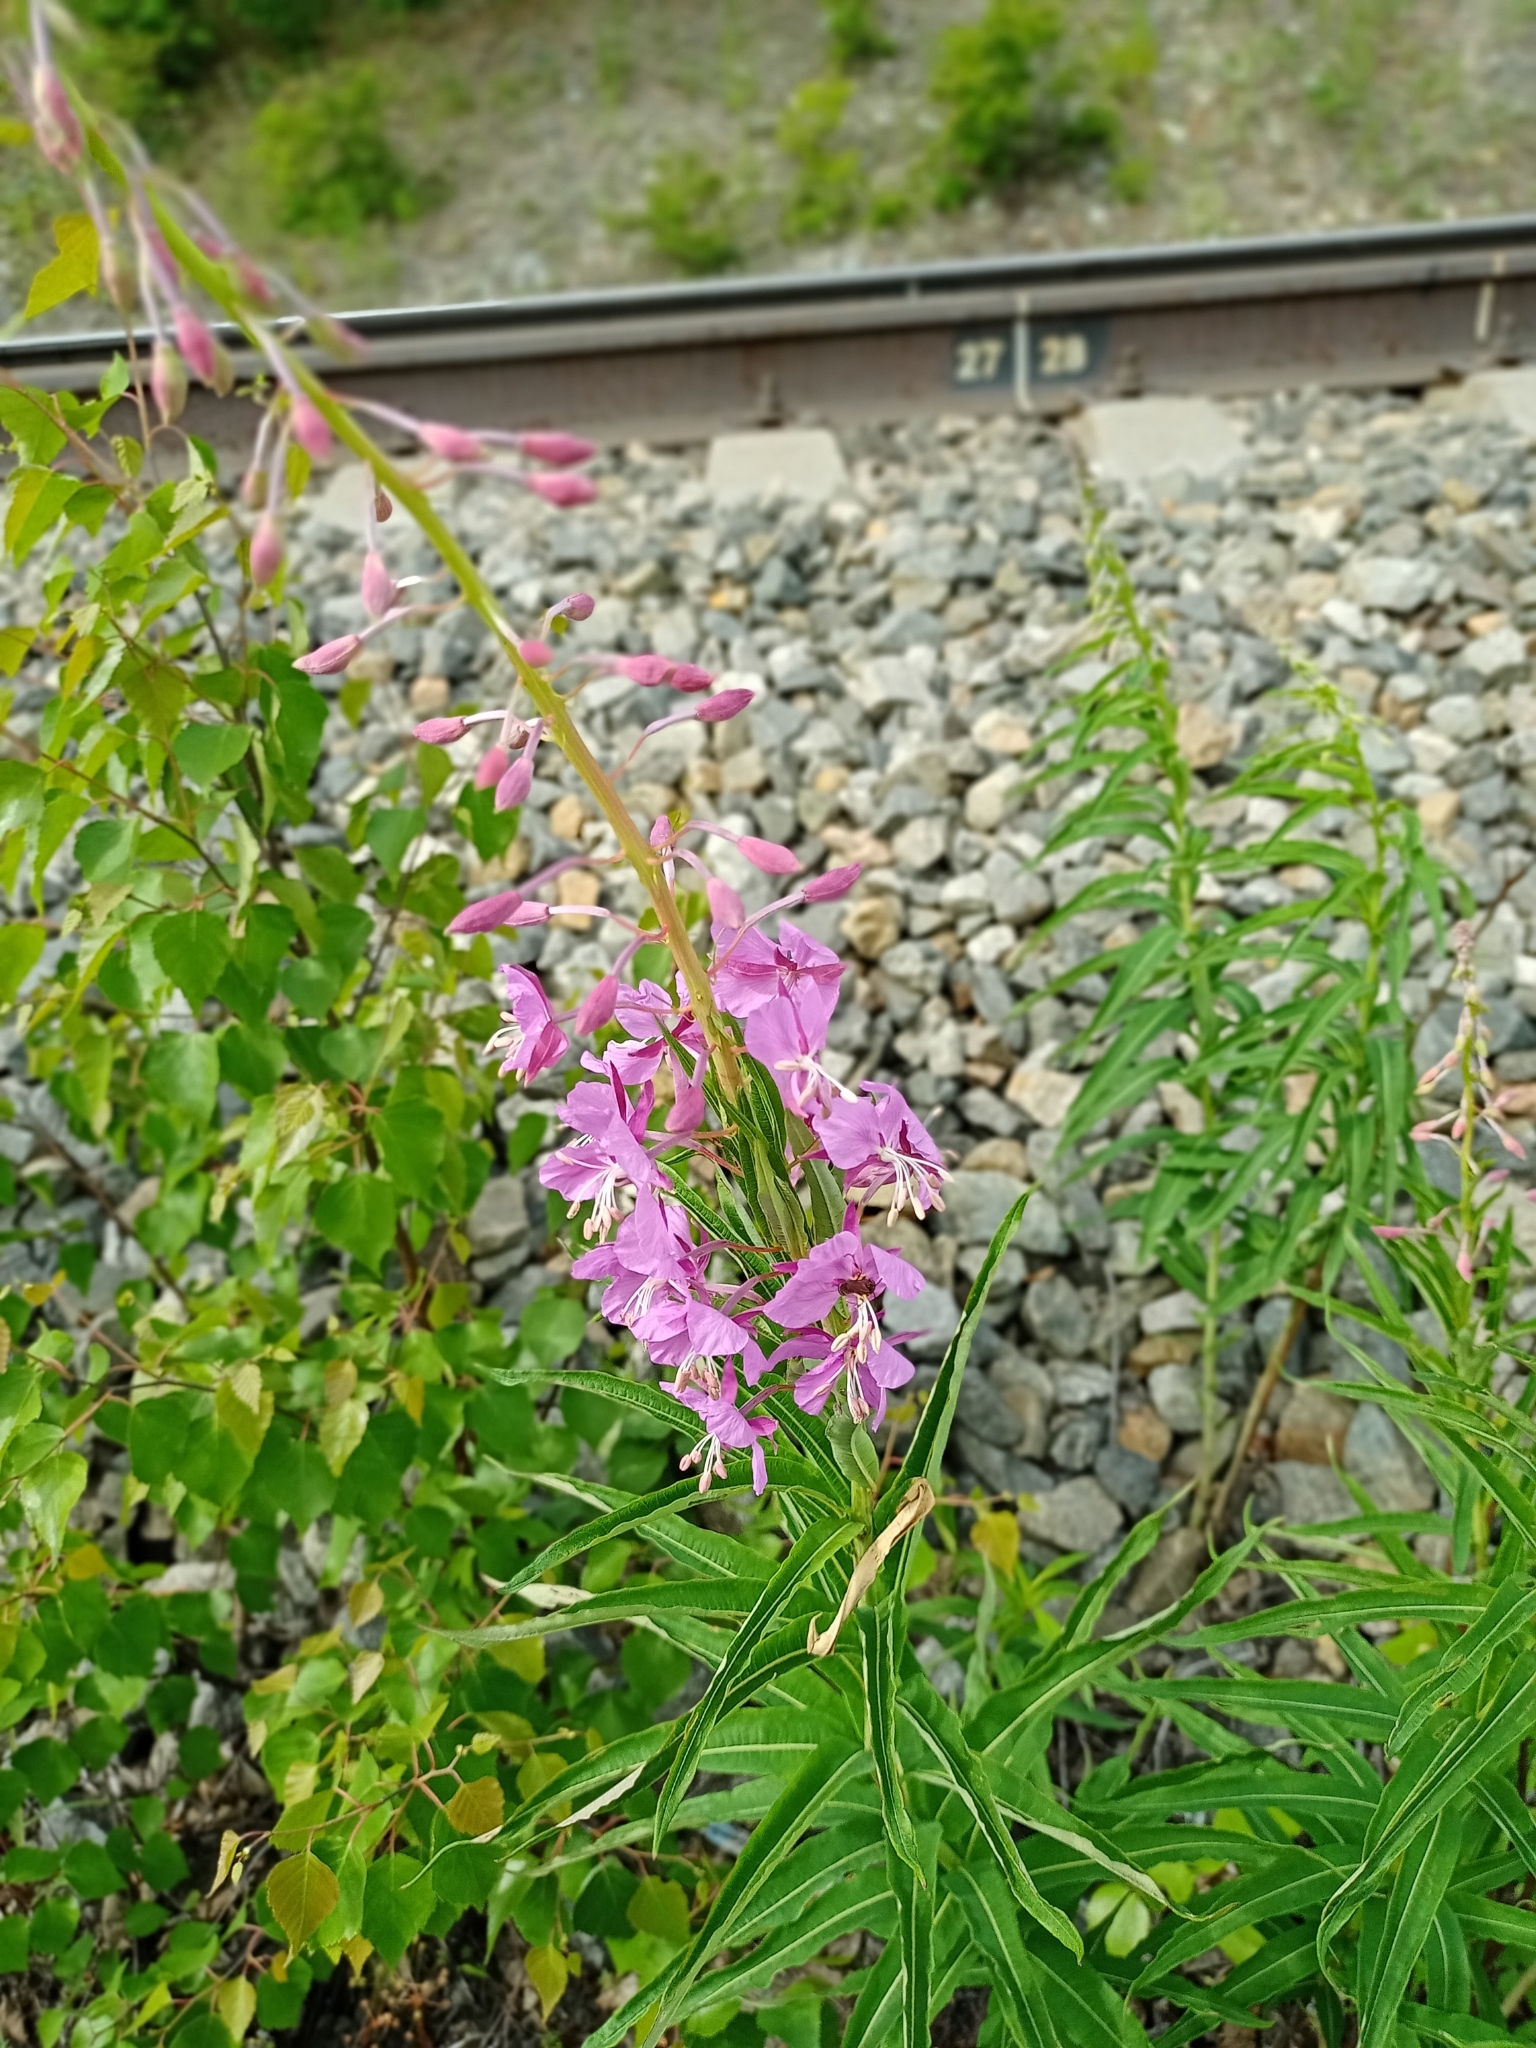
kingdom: Plantae
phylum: Tracheophyta
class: Magnoliopsida
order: Myrtales
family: Onagraceae
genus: Chamaenerion
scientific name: Chamaenerion angustifolium
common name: Fireweed
